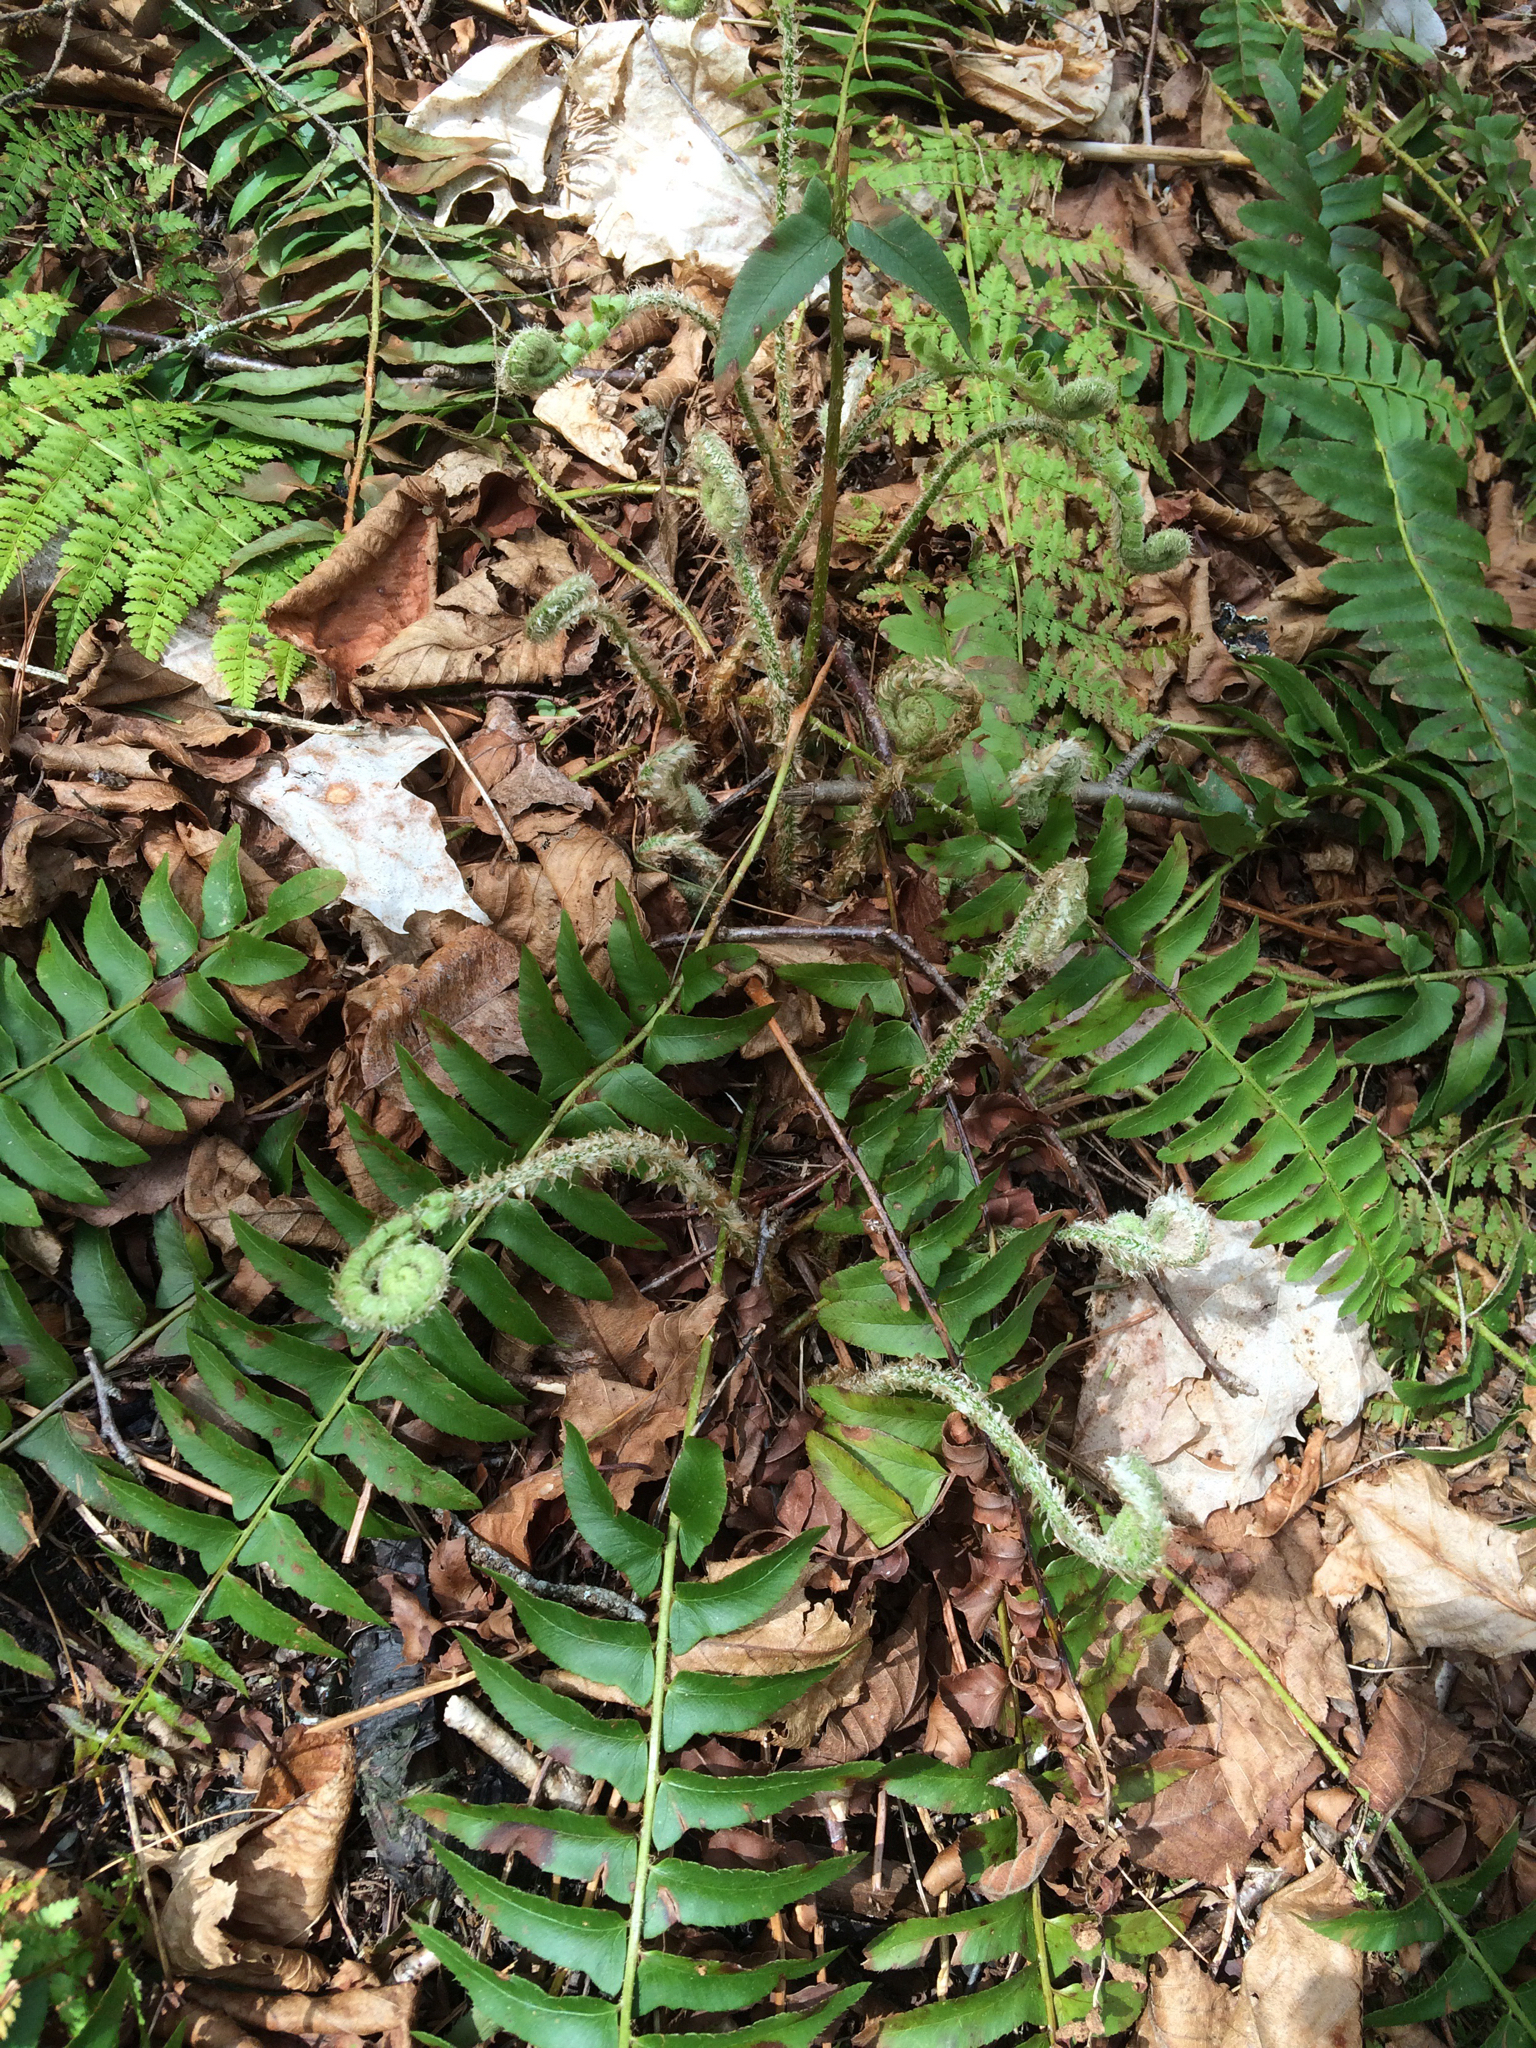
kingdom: Plantae
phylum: Tracheophyta
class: Polypodiopsida
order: Polypodiales
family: Dryopteridaceae
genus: Polystichum
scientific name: Polystichum acrostichoides
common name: Christmas fern
